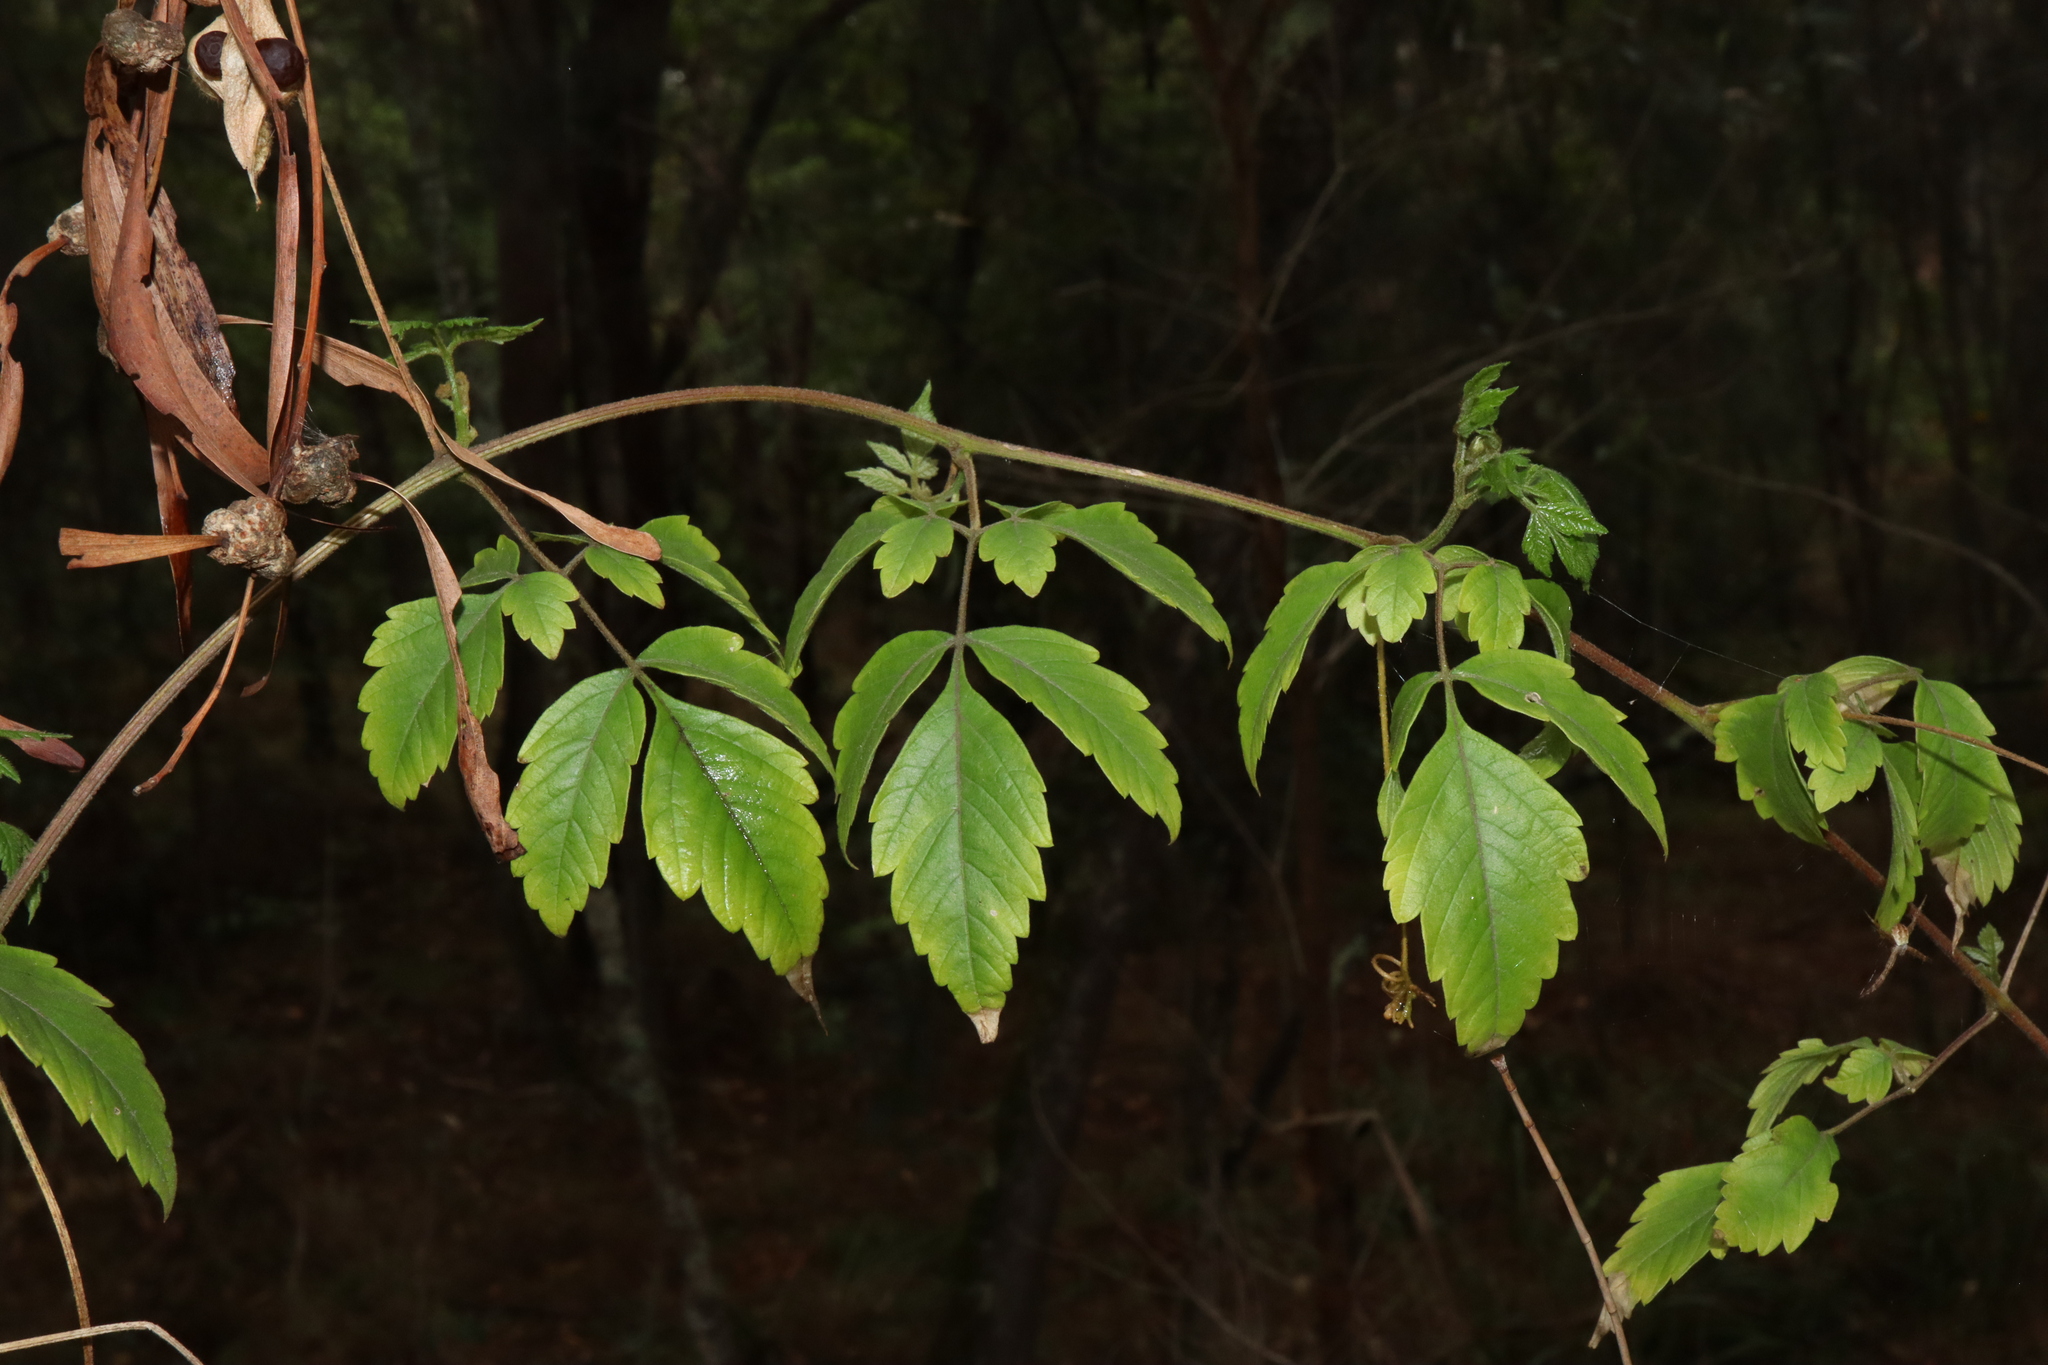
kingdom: Plantae
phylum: Tracheophyta
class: Magnoliopsida
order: Sapindales
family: Sapindaceae
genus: Cardiospermum
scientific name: Cardiospermum grandiflorum
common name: Balloon vine
